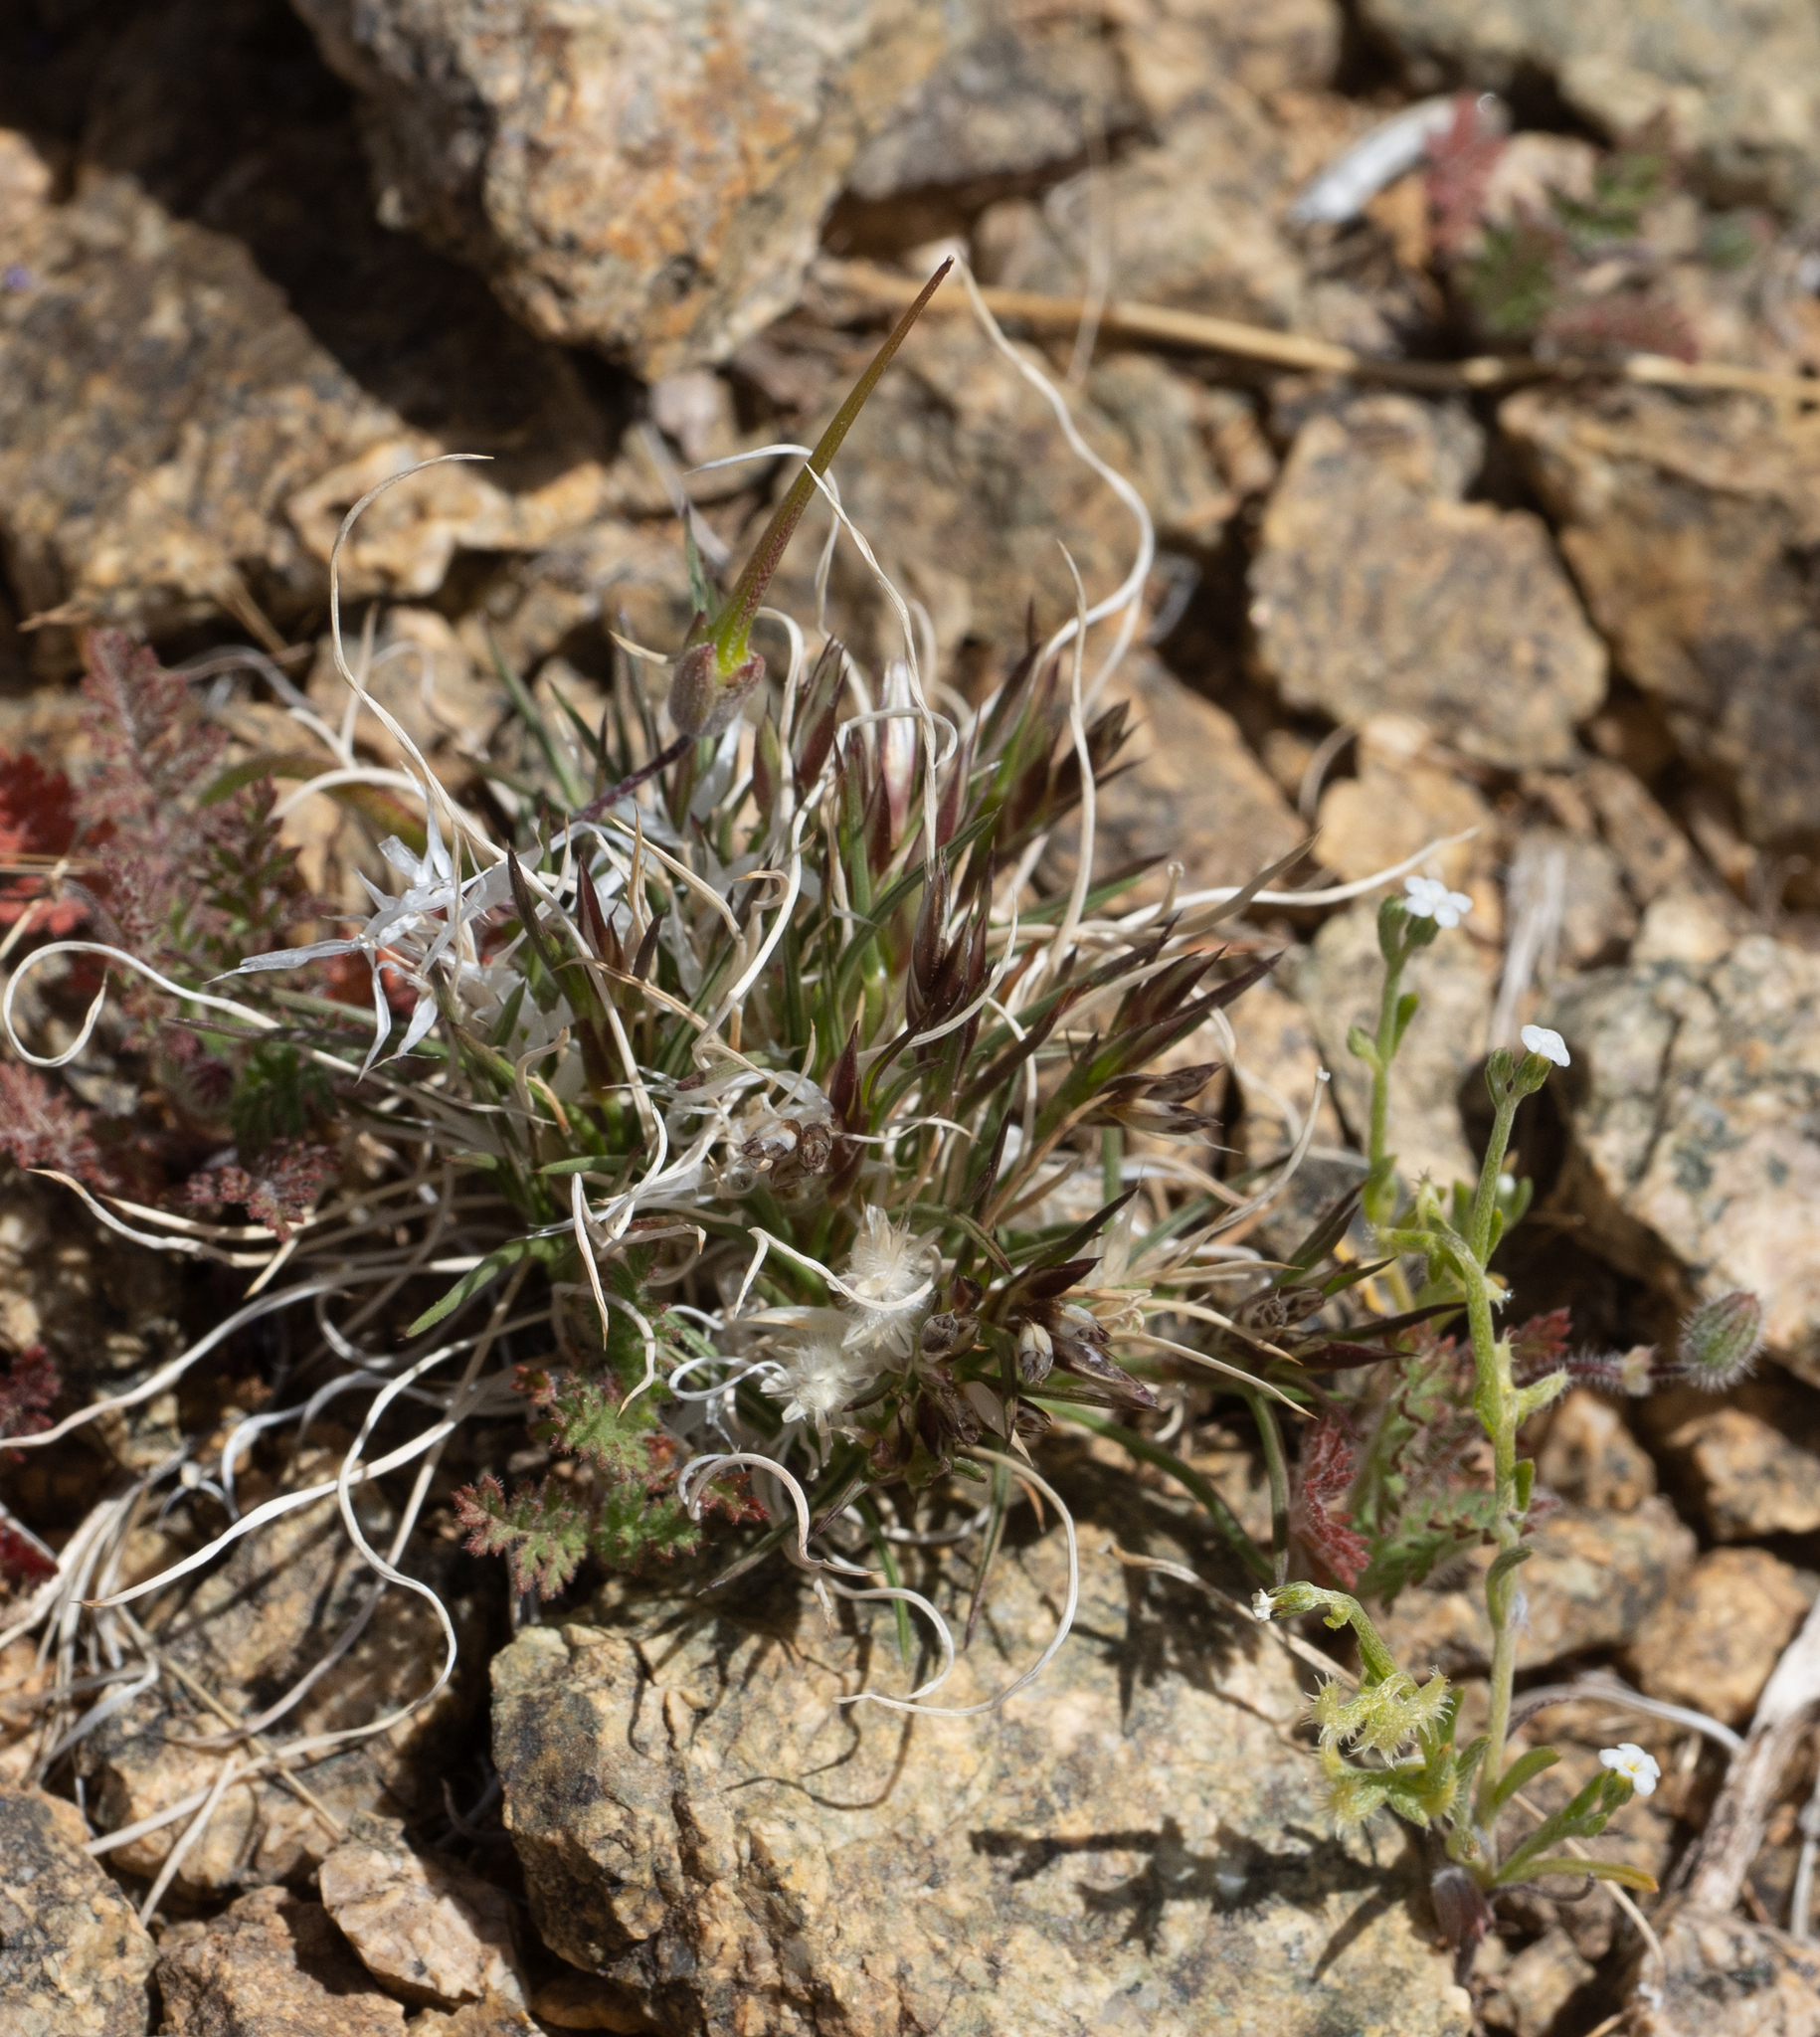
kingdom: Plantae
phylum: Tracheophyta
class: Liliopsida
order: Poales
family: Poaceae
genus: Dasyochloa
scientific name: Dasyochloa pulchella
